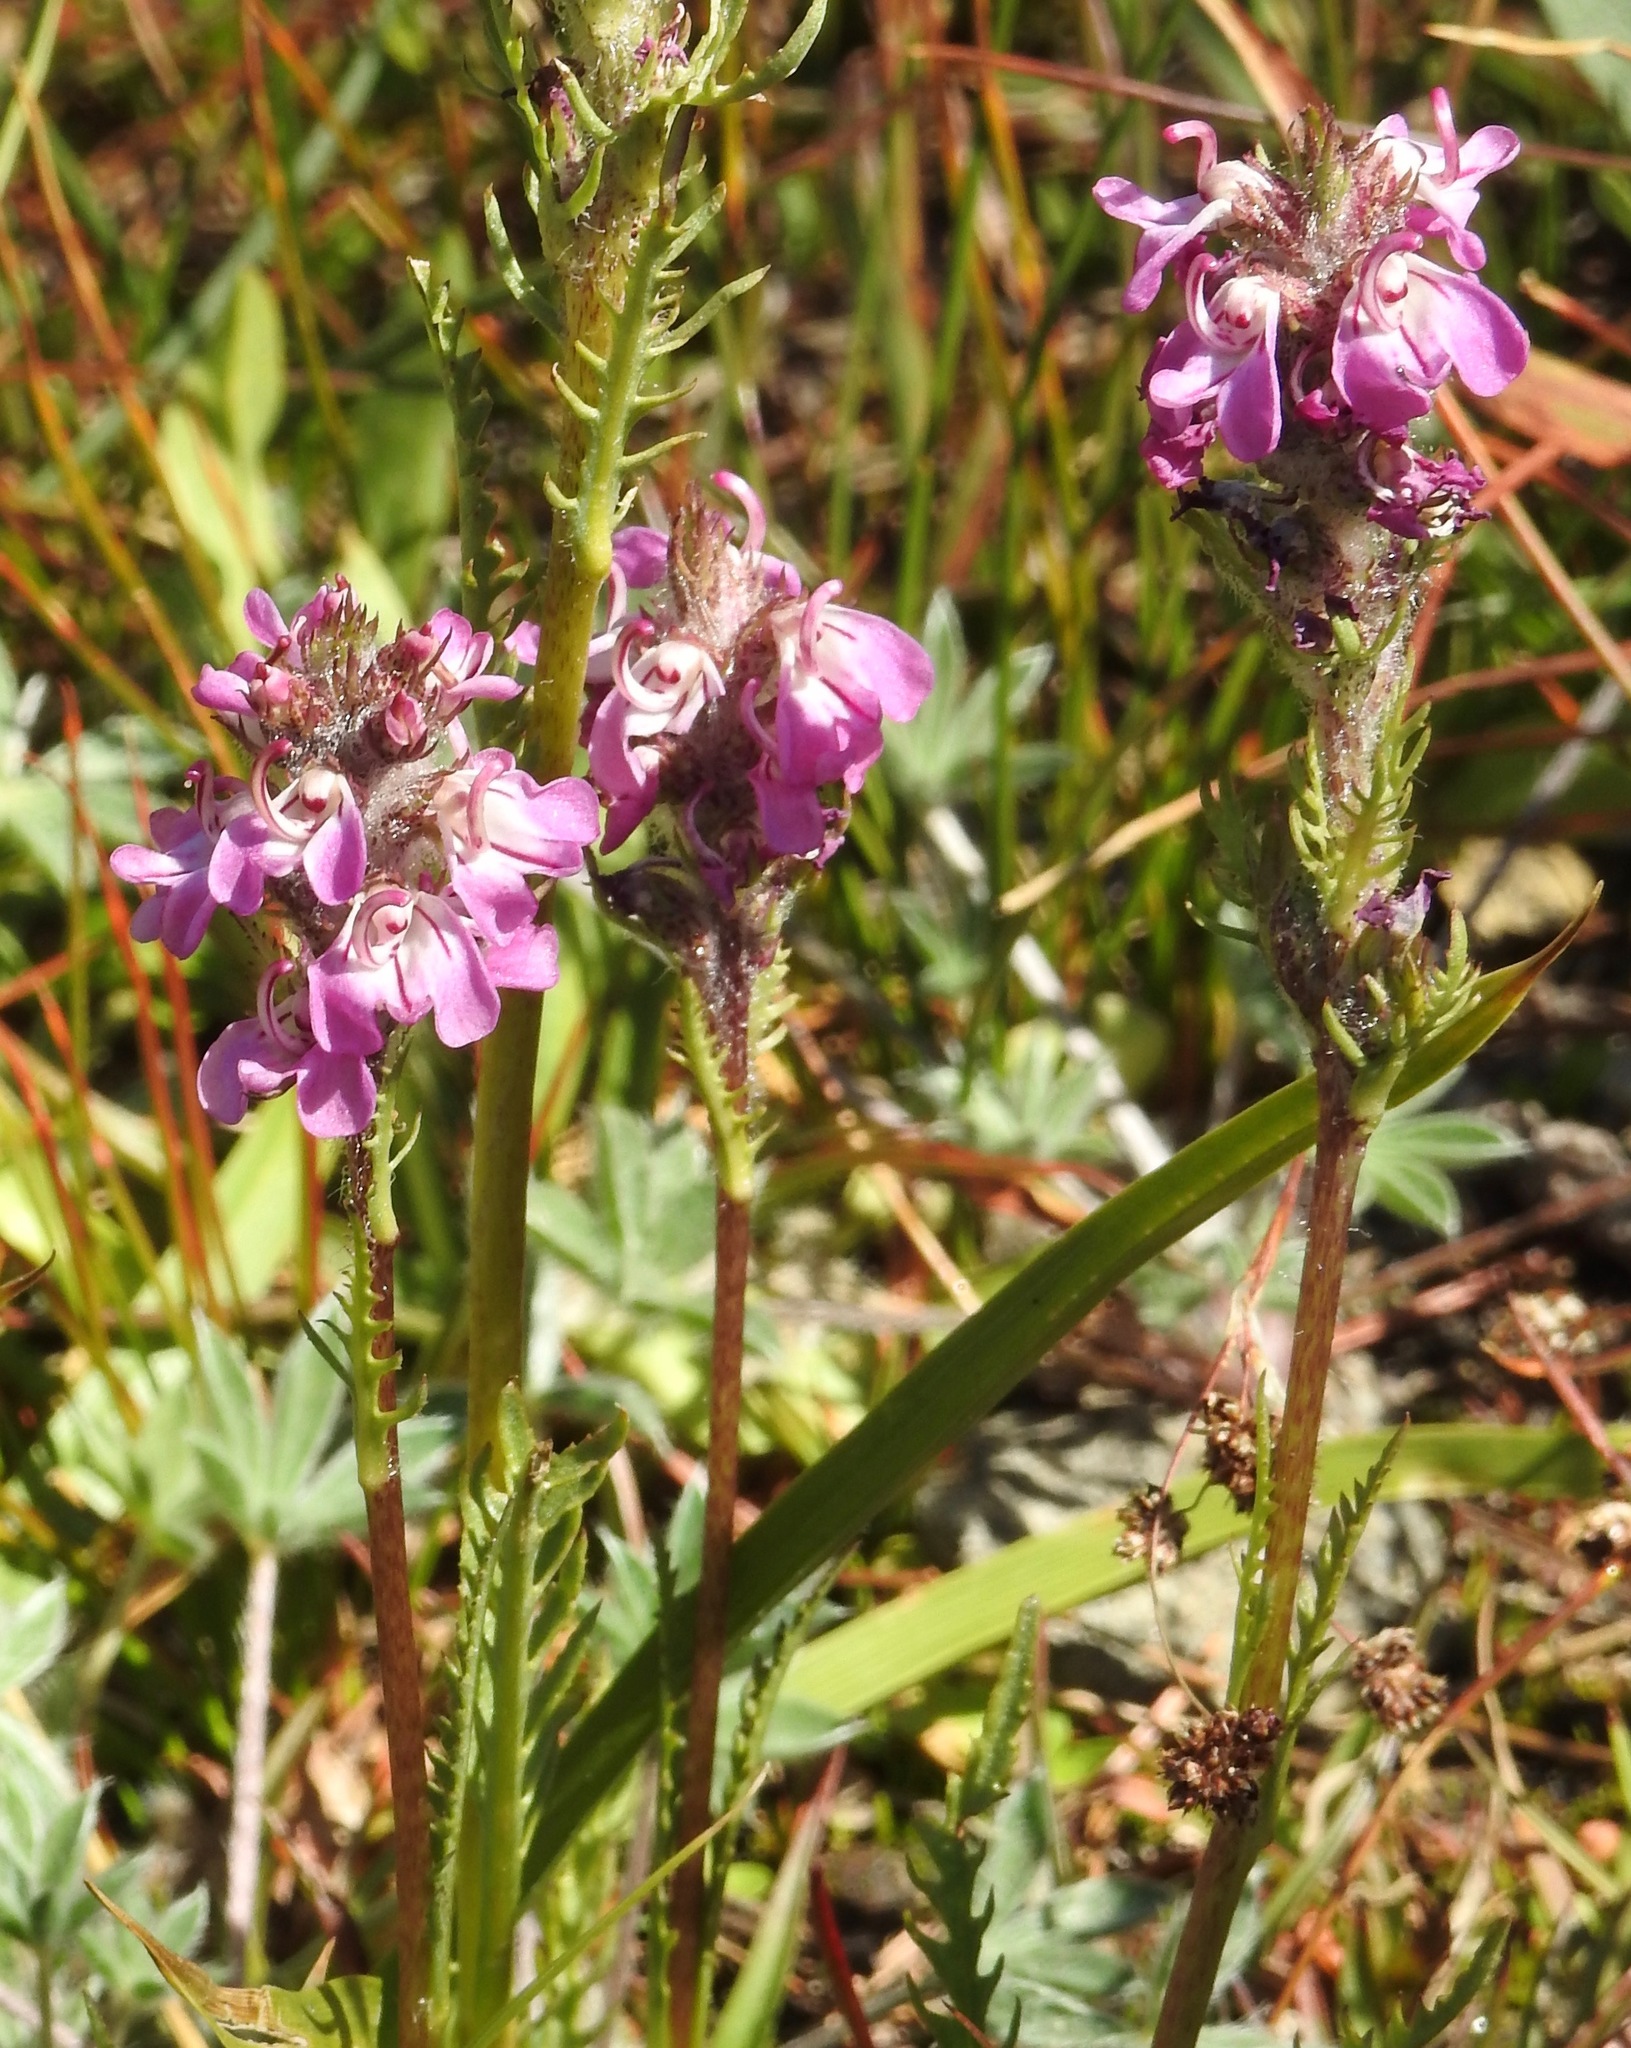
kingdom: Plantae
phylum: Tracheophyta
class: Magnoliopsida
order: Lamiales
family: Orobanchaceae
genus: Pedicularis
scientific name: Pedicularis attollens
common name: Slender pedicularis
